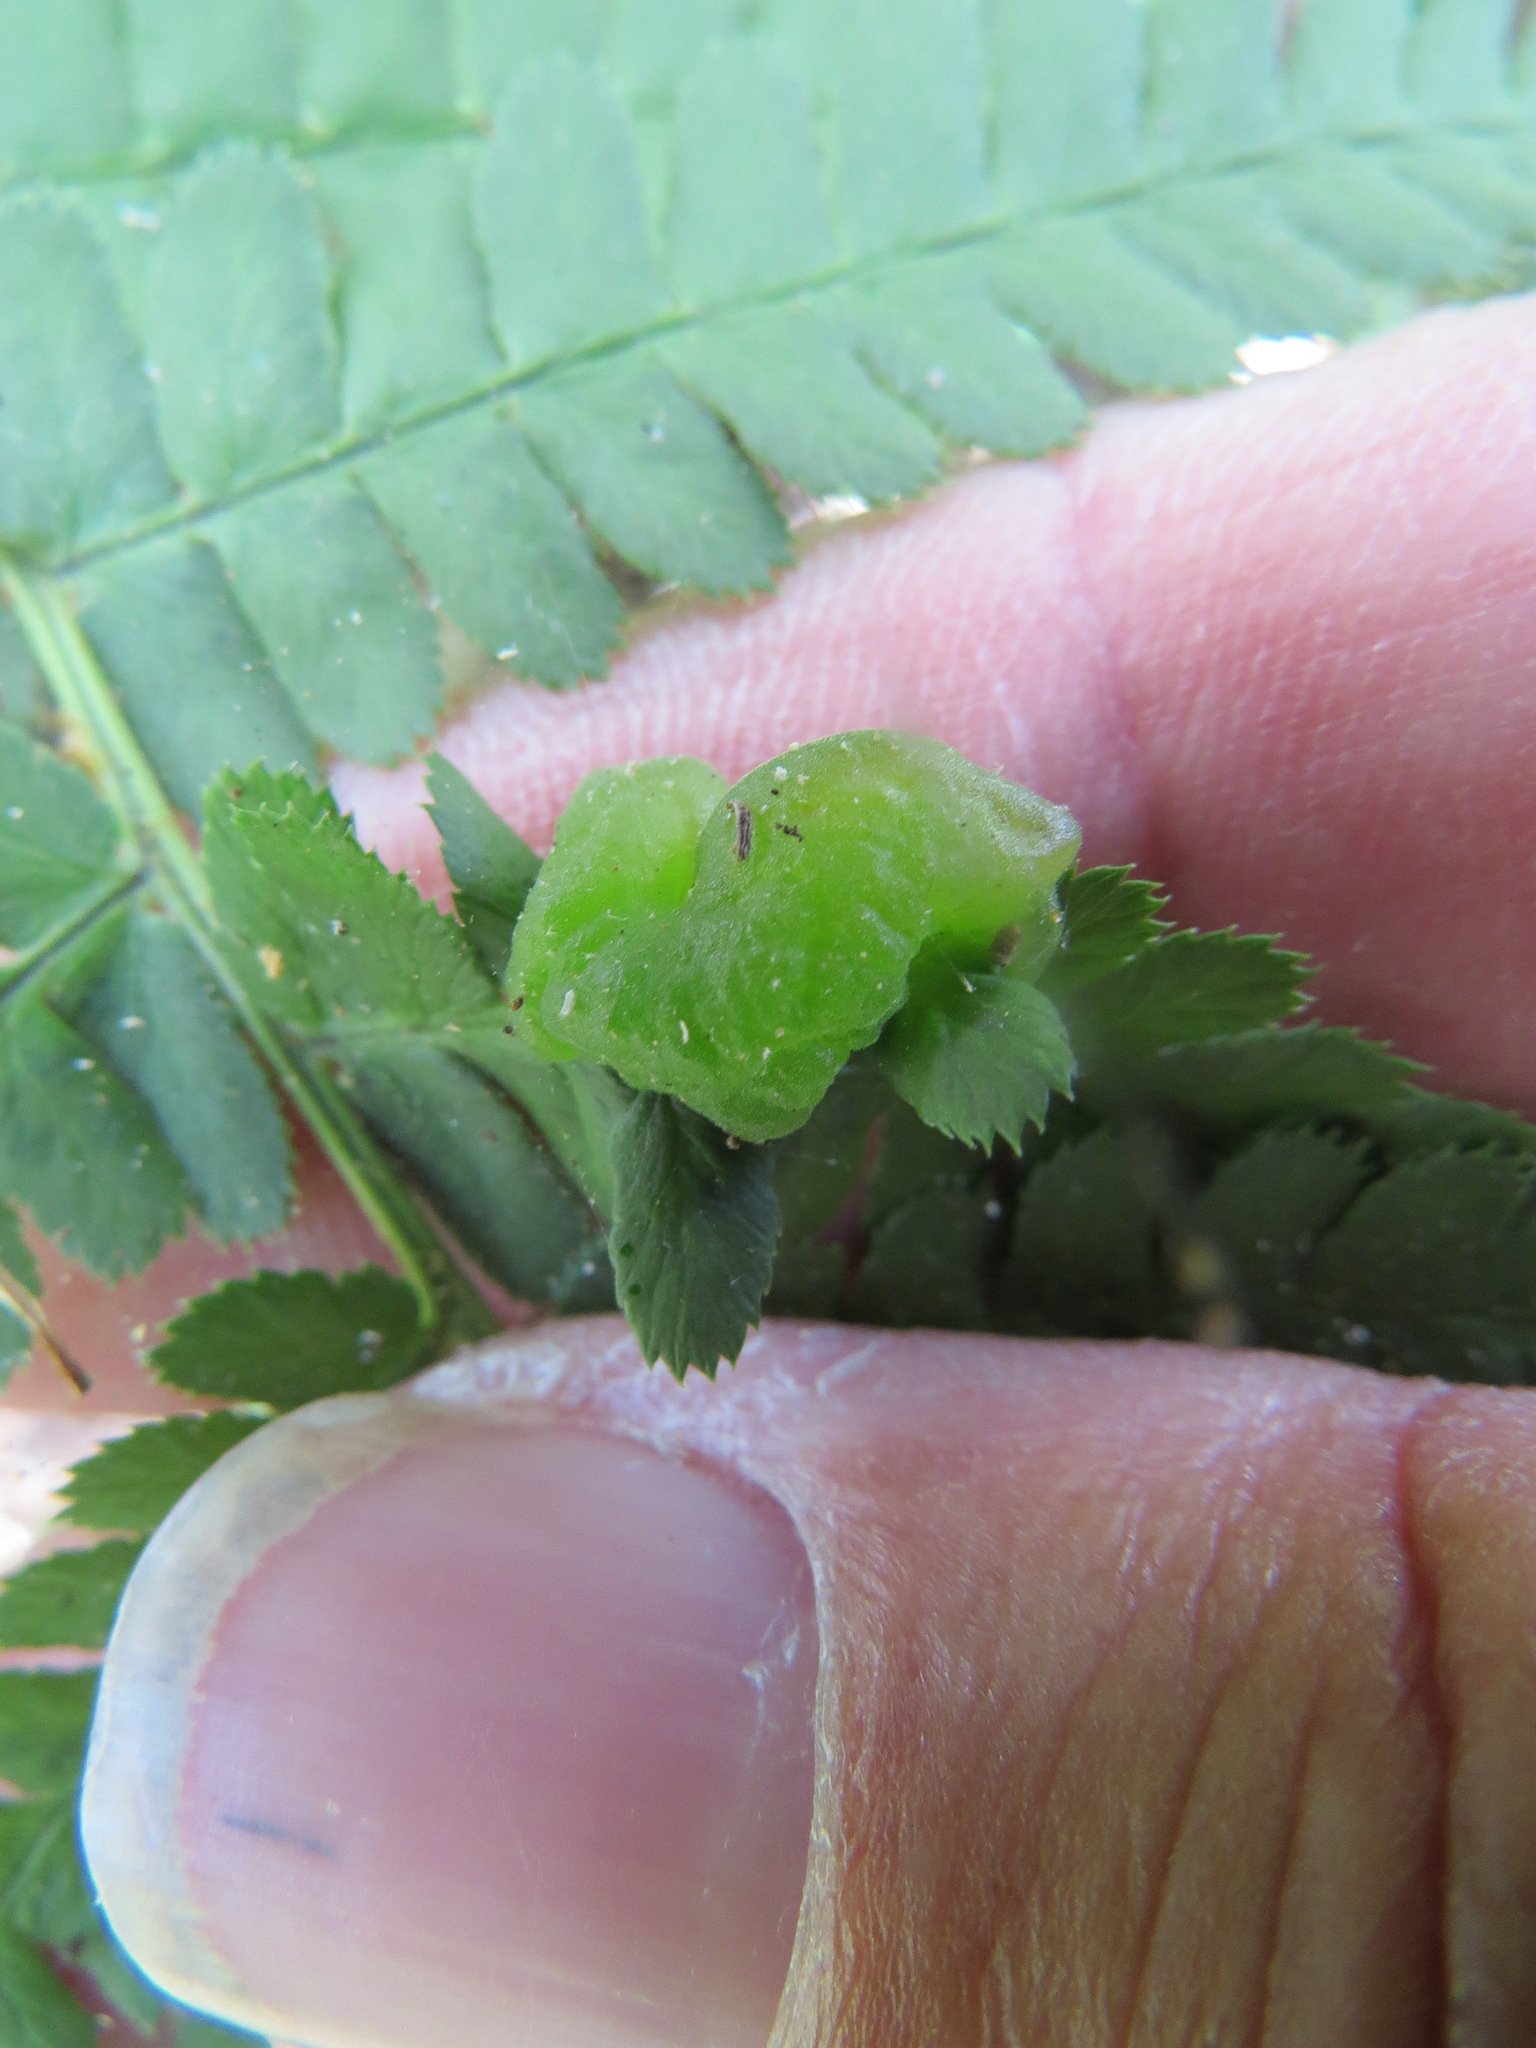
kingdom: Fungi
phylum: Ascomycota
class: Taphrinomycetes
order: Taphrinales
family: Taphrinaceae
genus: Taphrina
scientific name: Taphrina californica
